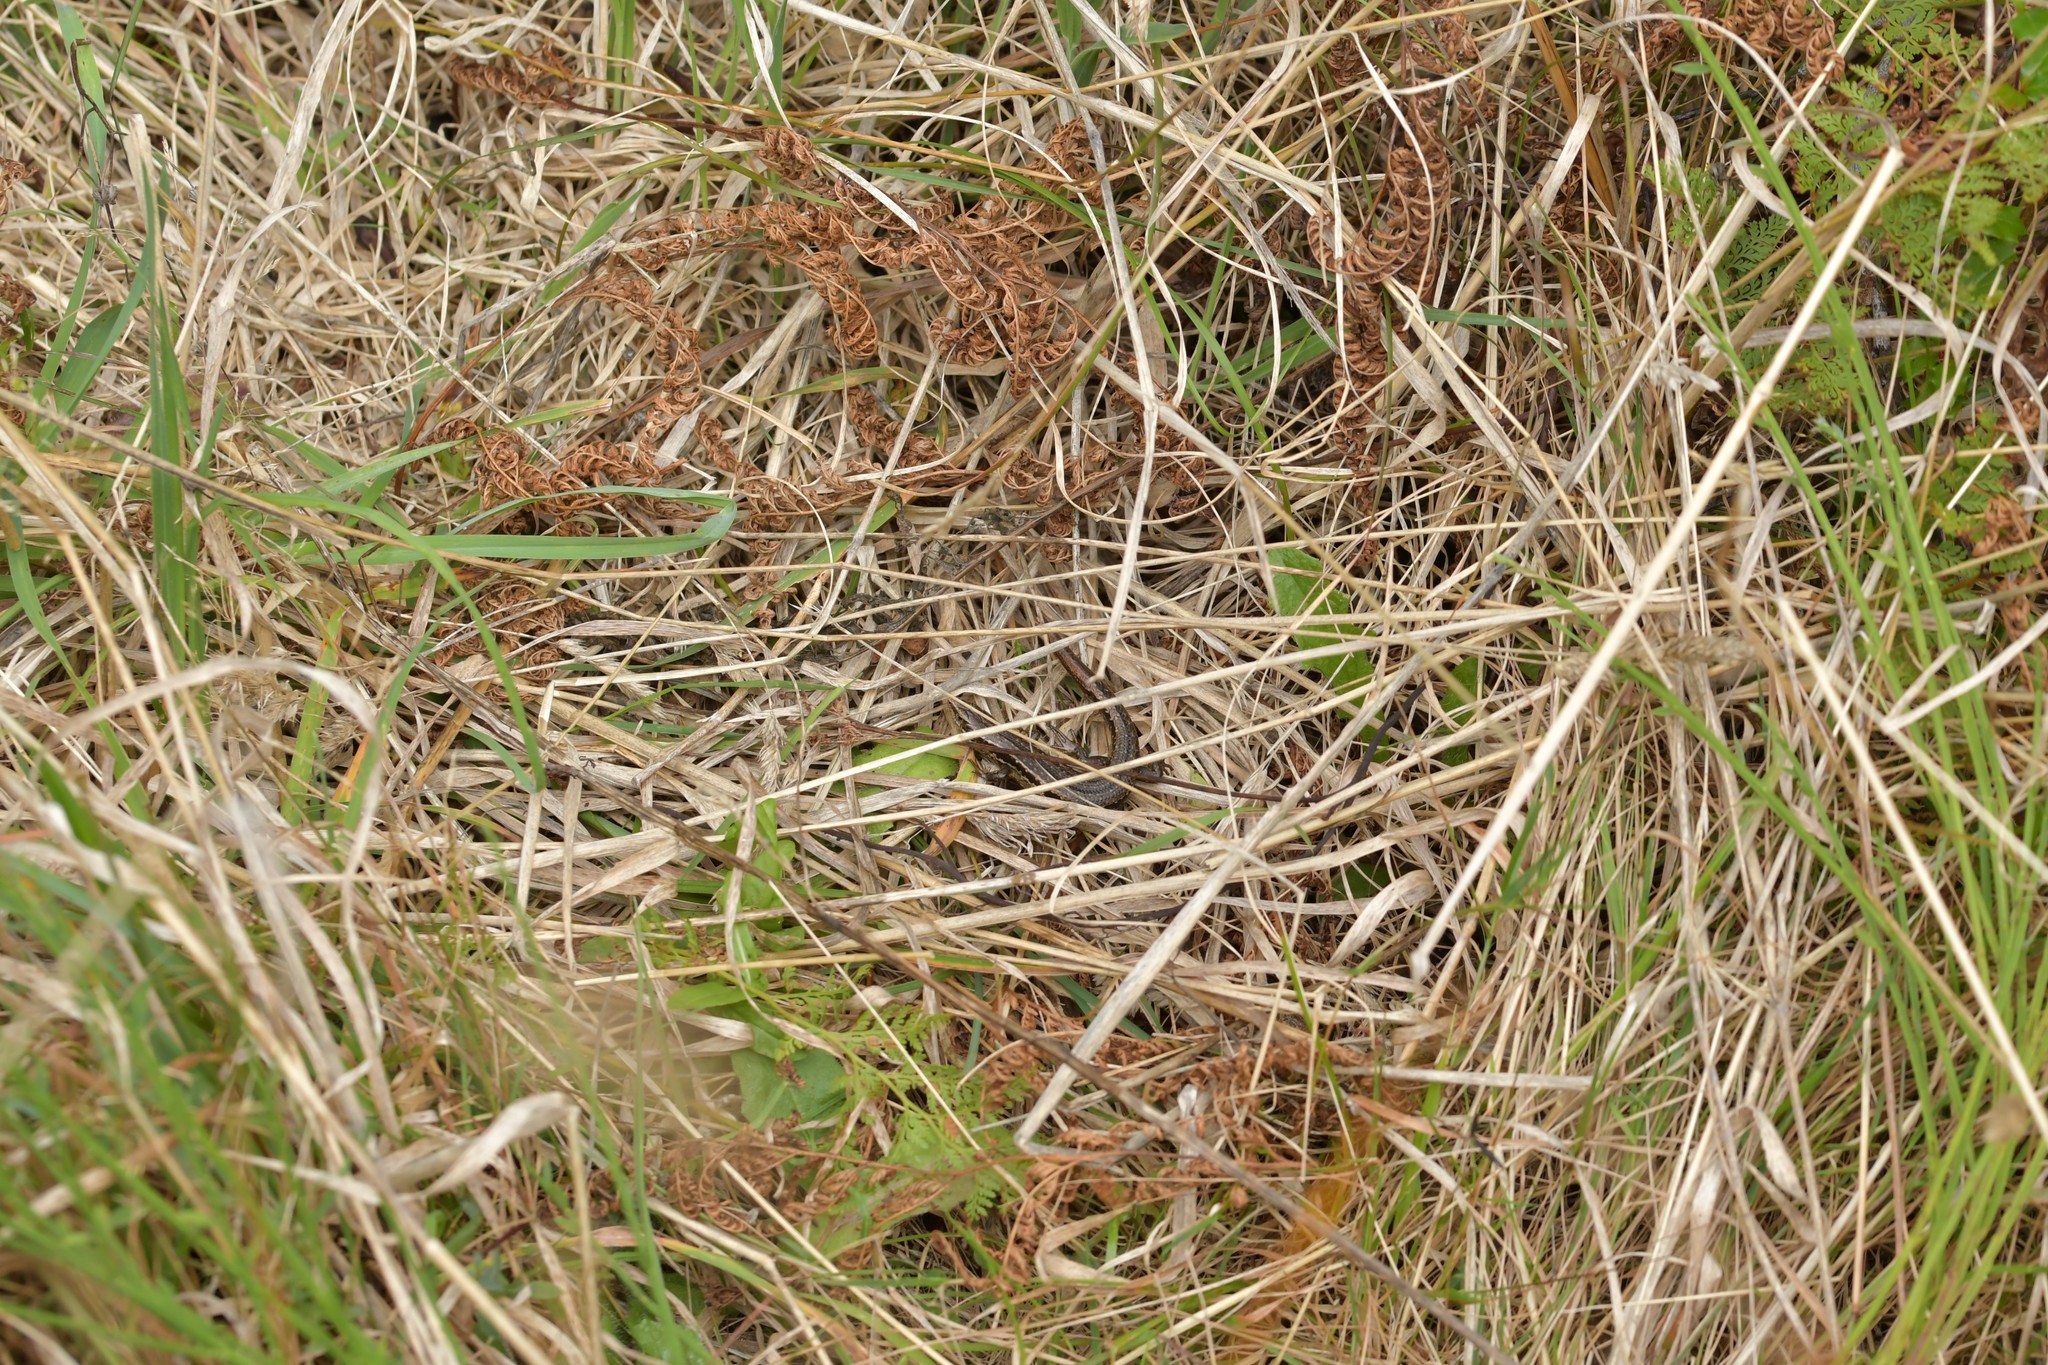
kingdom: Animalia
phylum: Chordata
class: Squamata
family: Scincidae
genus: Oligosoma
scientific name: Oligosoma polychroma
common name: Common new zealand skink
